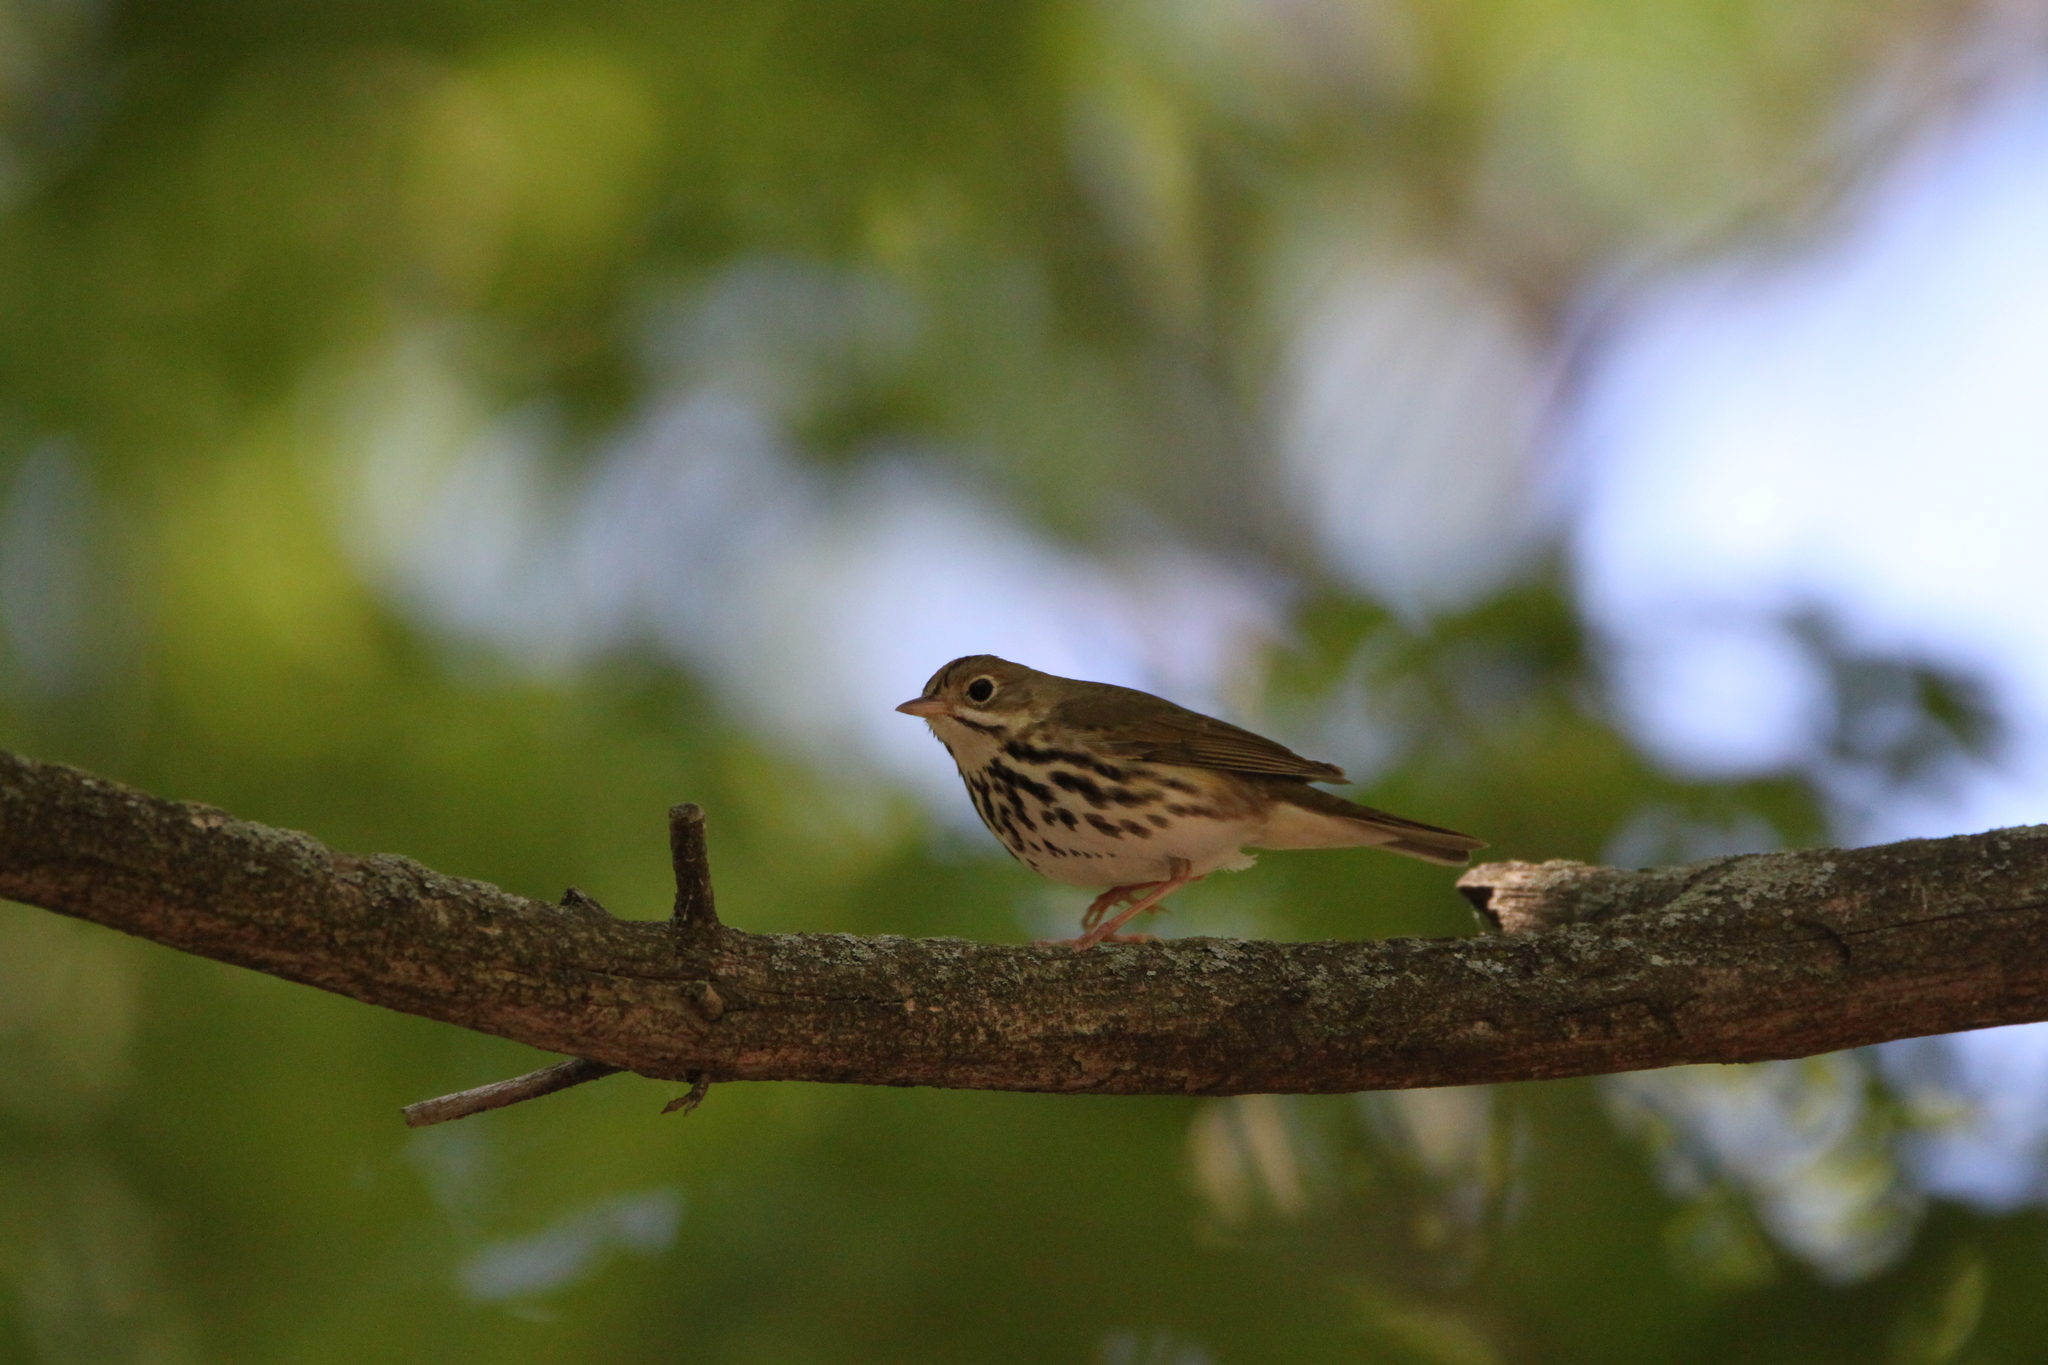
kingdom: Animalia
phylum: Chordata
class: Aves
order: Passeriformes
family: Parulidae
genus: Seiurus
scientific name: Seiurus aurocapilla
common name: Ovenbird
